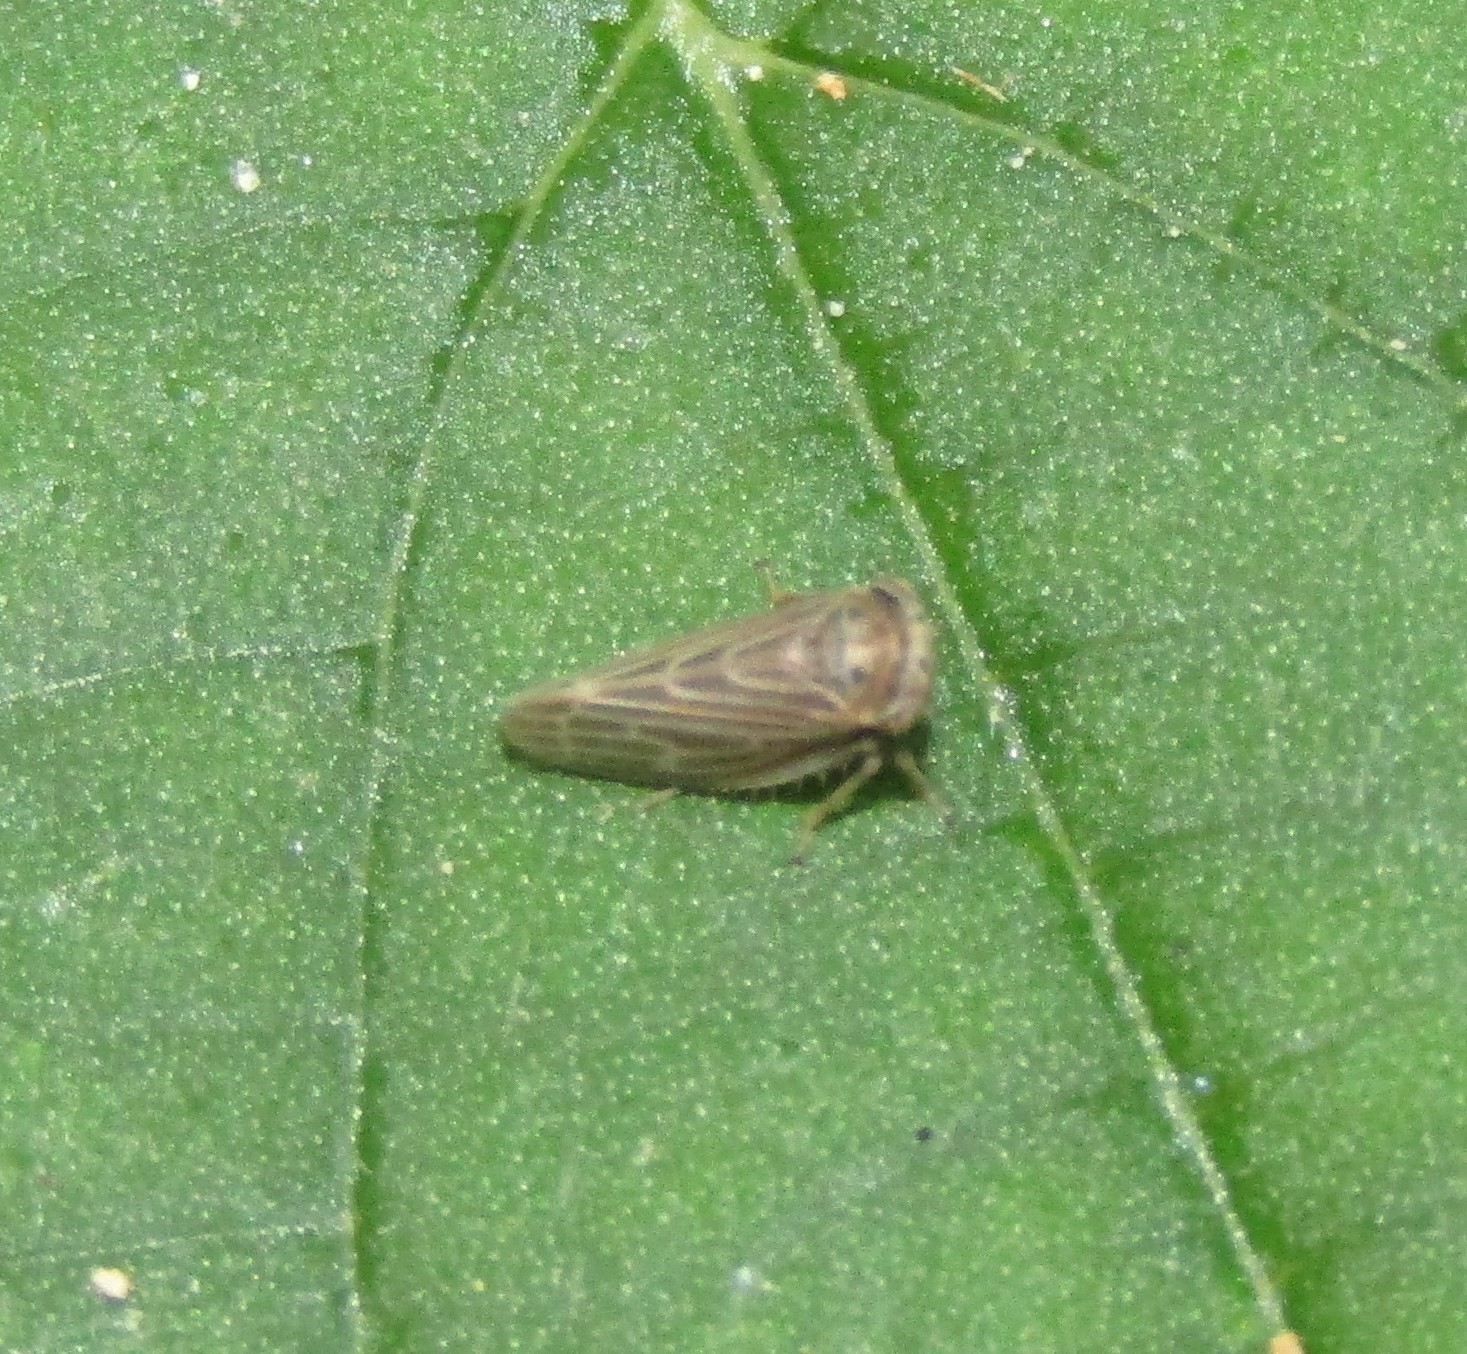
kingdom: Animalia
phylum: Arthropoda
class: Insecta
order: Hemiptera
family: Cicadellidae
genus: Agalliota
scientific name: Agalliota quadripunctata
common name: The four-spotted clover leafhopper
